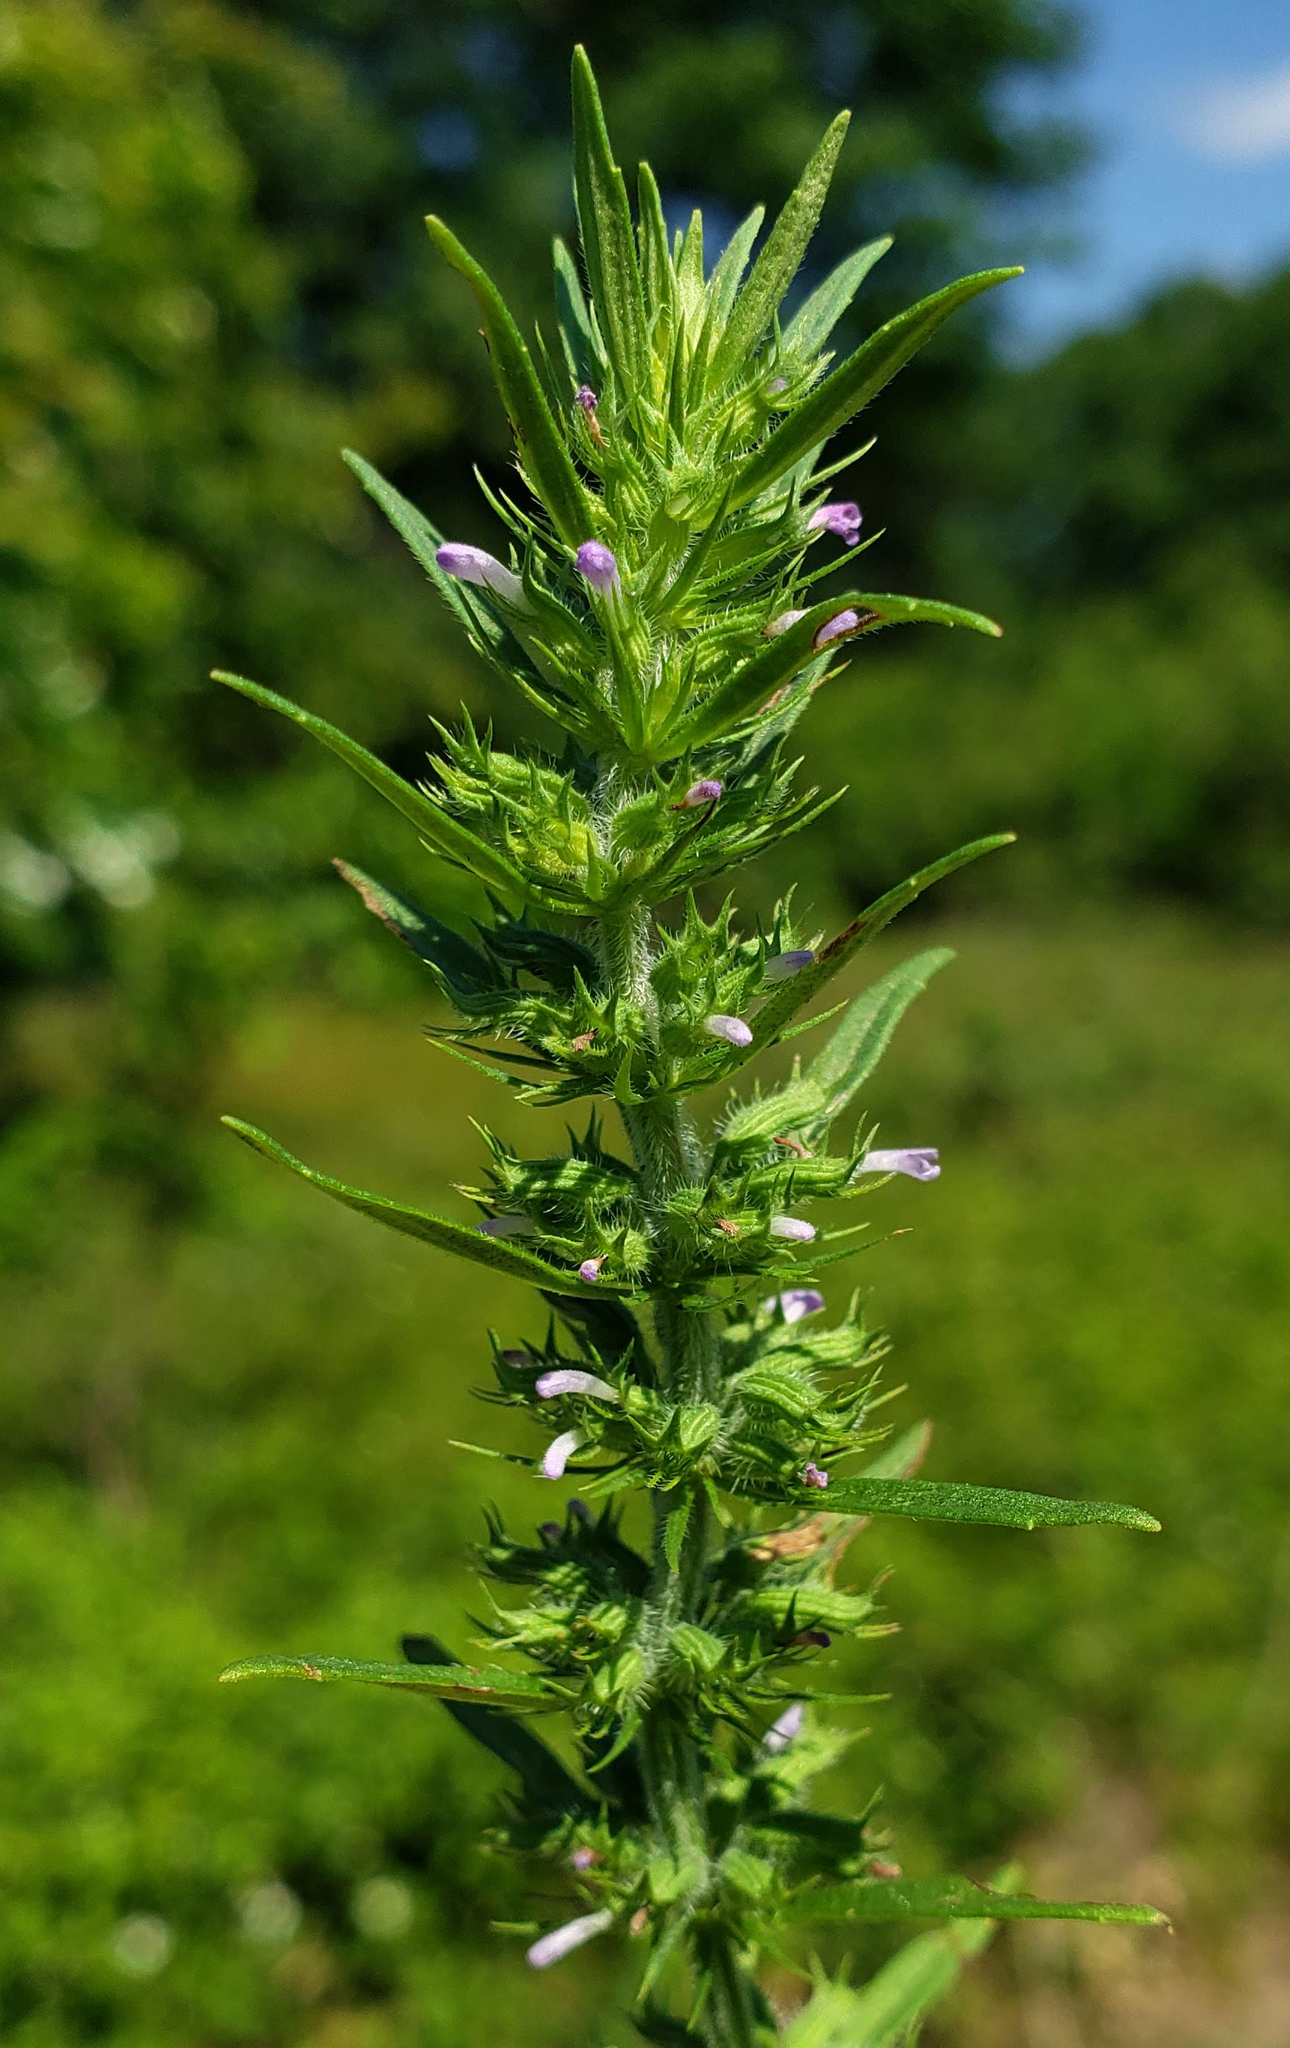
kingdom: Plantae
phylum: Tracheophyta
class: Magnoliopsida
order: Lamiales
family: Lamiaceae
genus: Hedeoma
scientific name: Hedeoma hispida
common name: Mock pennyroyal
